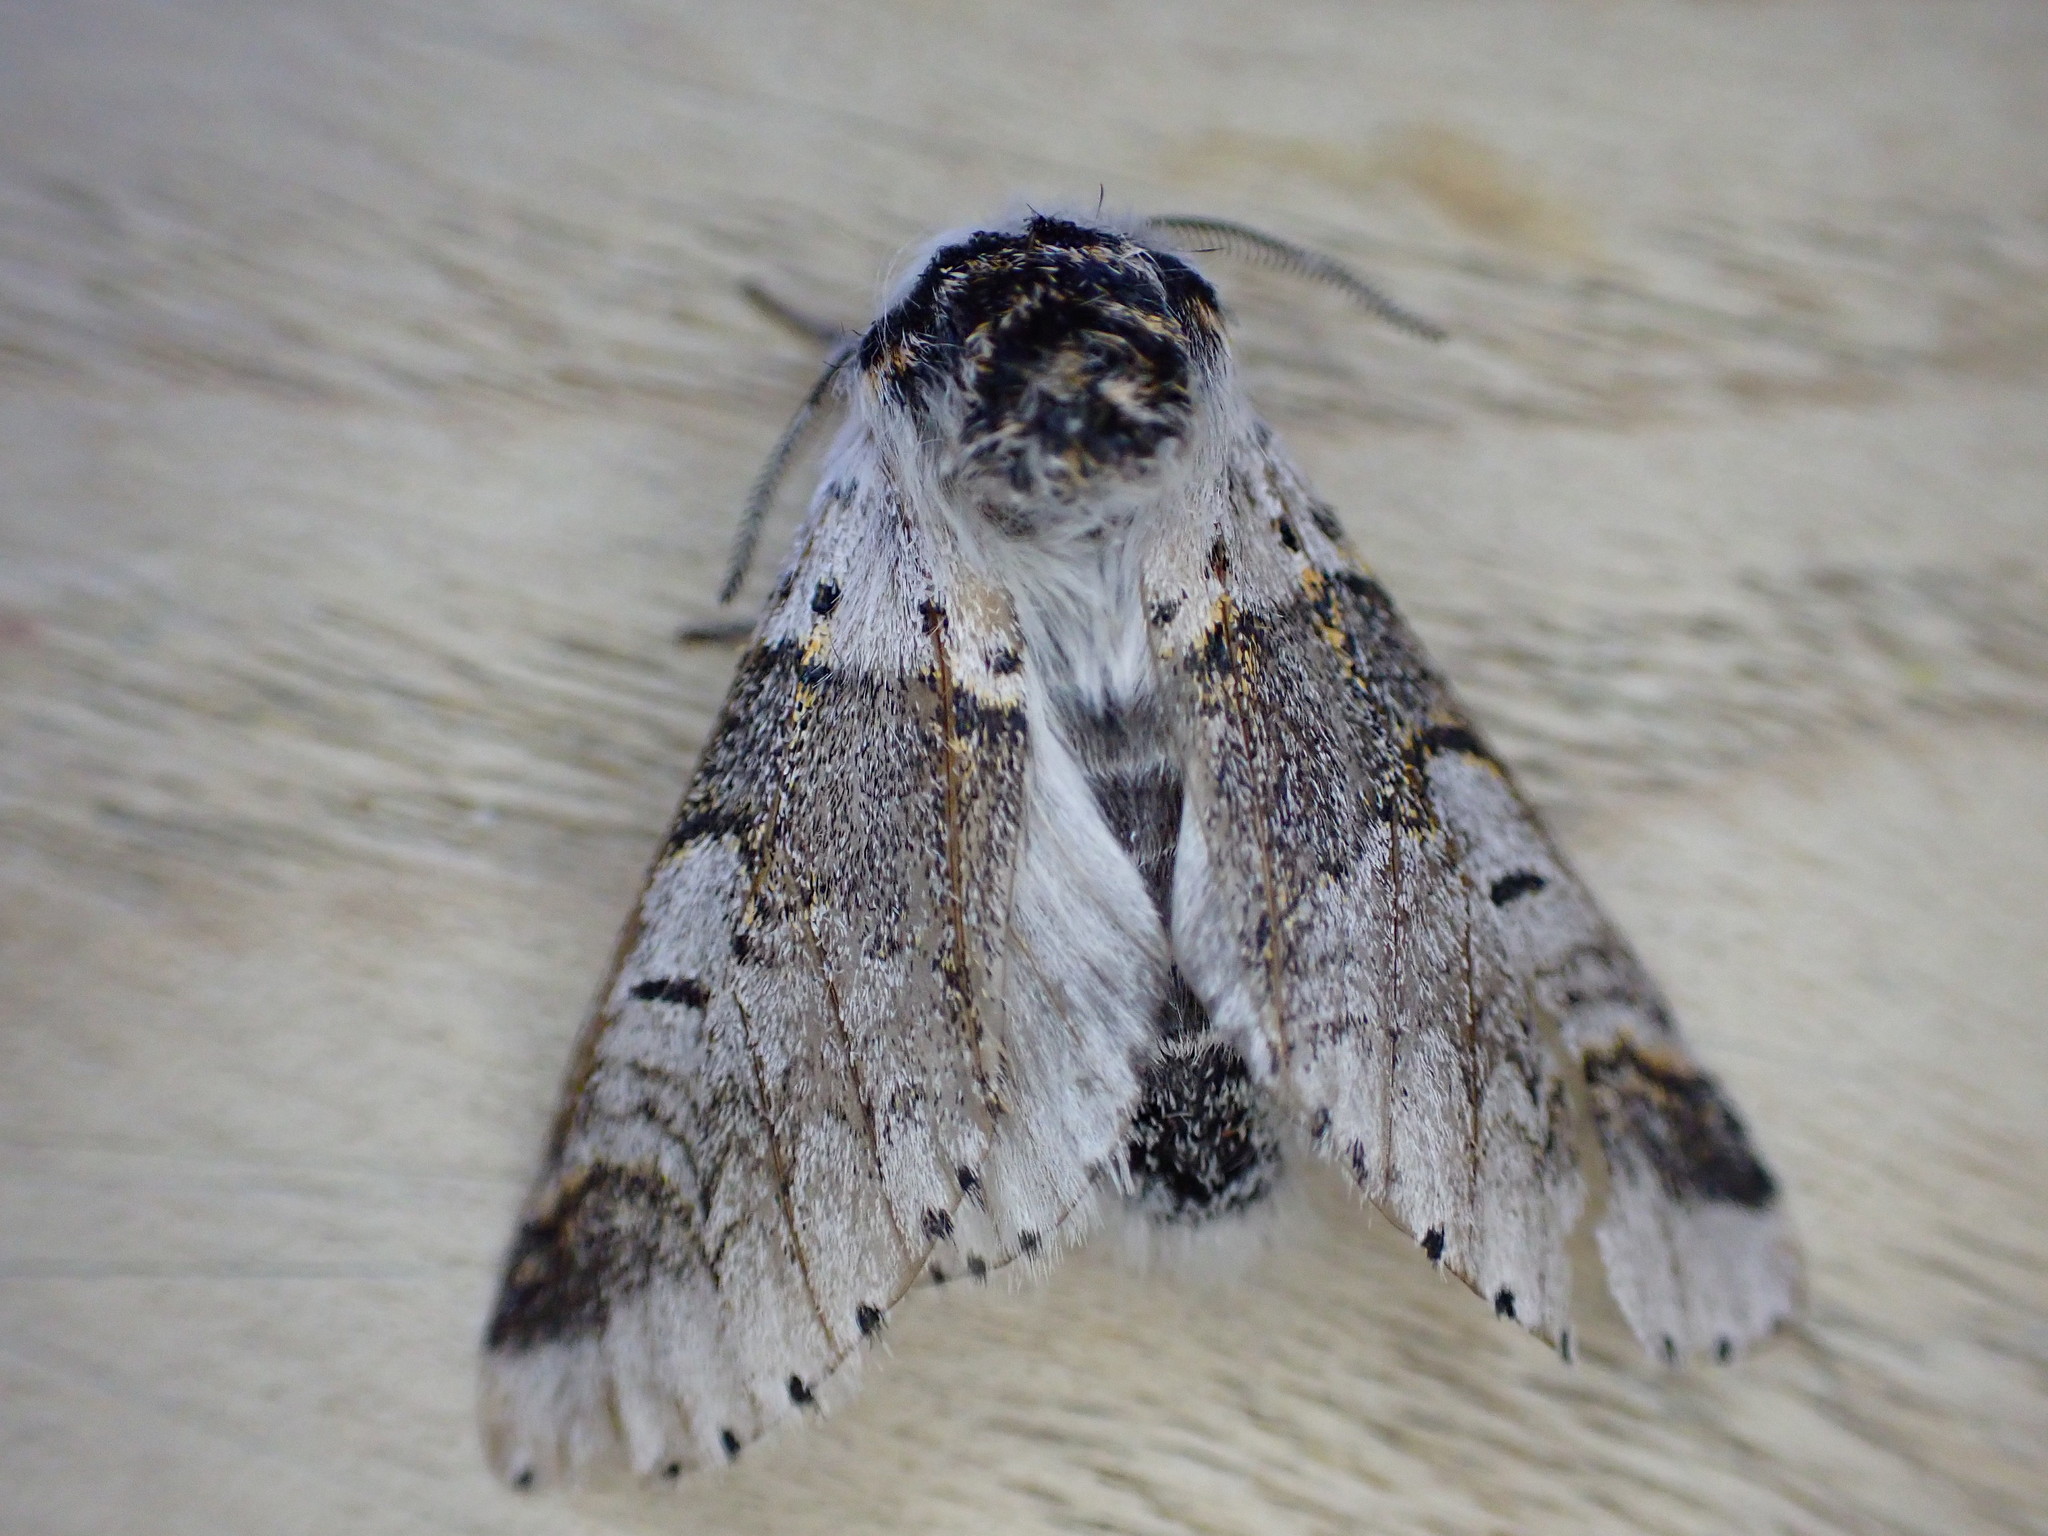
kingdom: Animalia
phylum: Arthropoda
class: Insecta
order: Lepidoptera
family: Notodontidae
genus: Furcula
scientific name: Furcula furcula
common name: Sallow kitten
